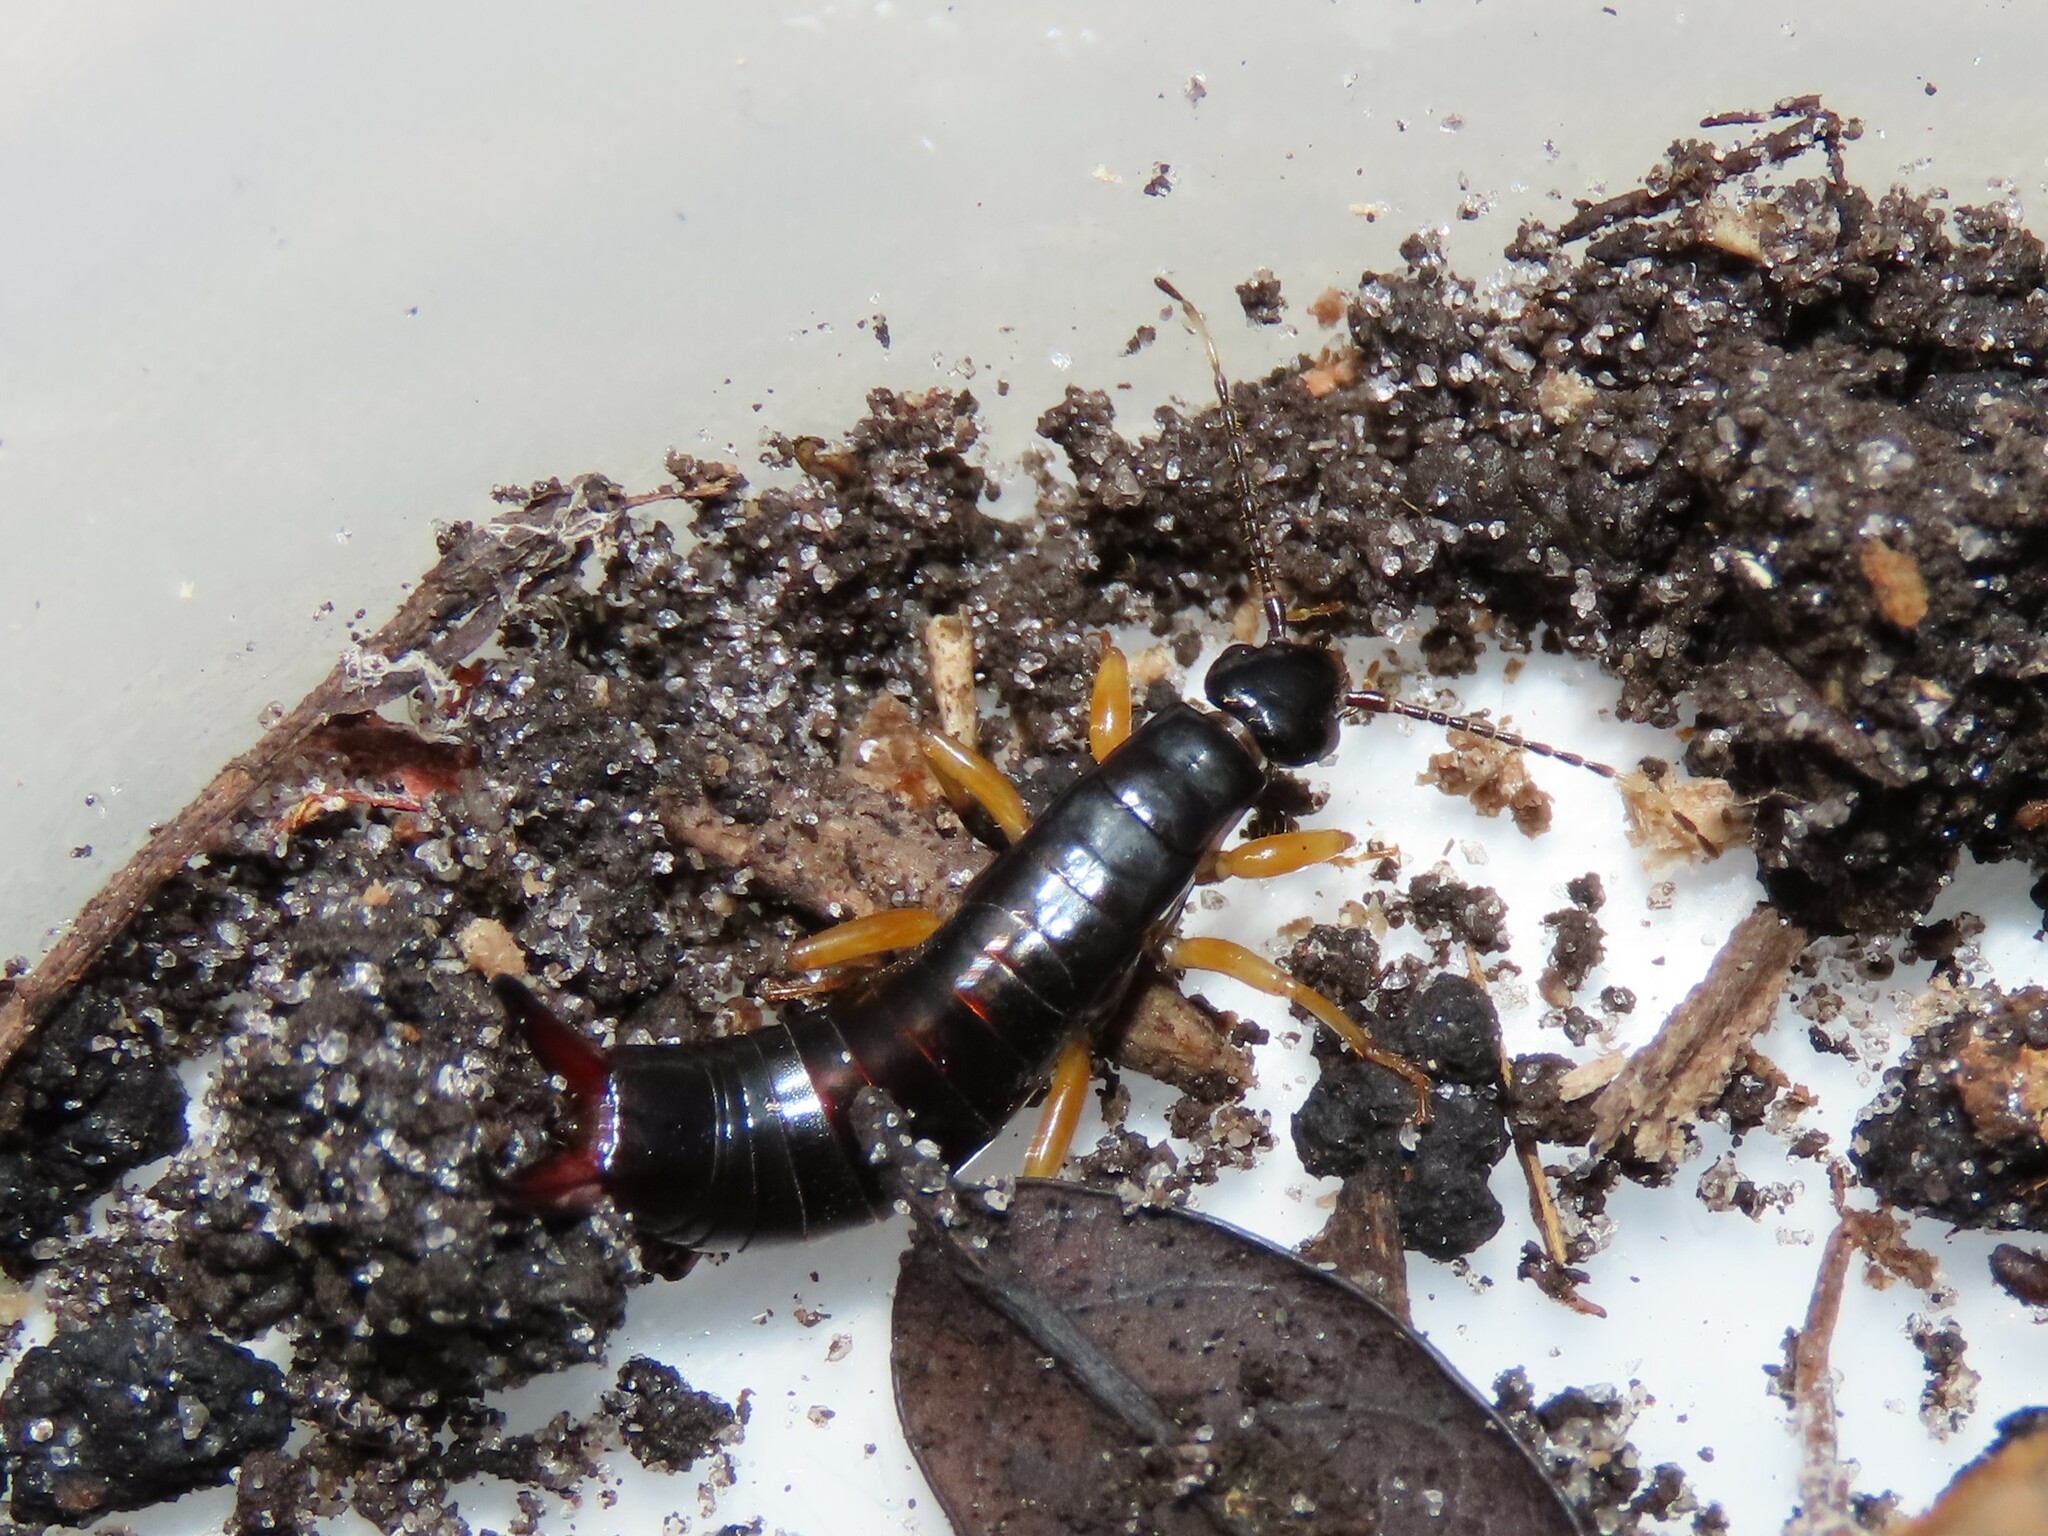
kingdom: Animalia
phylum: Arthropoda
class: Insecta
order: Dermaptera
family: Anisolabididae
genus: Euborellia
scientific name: Euborellia arcanum
